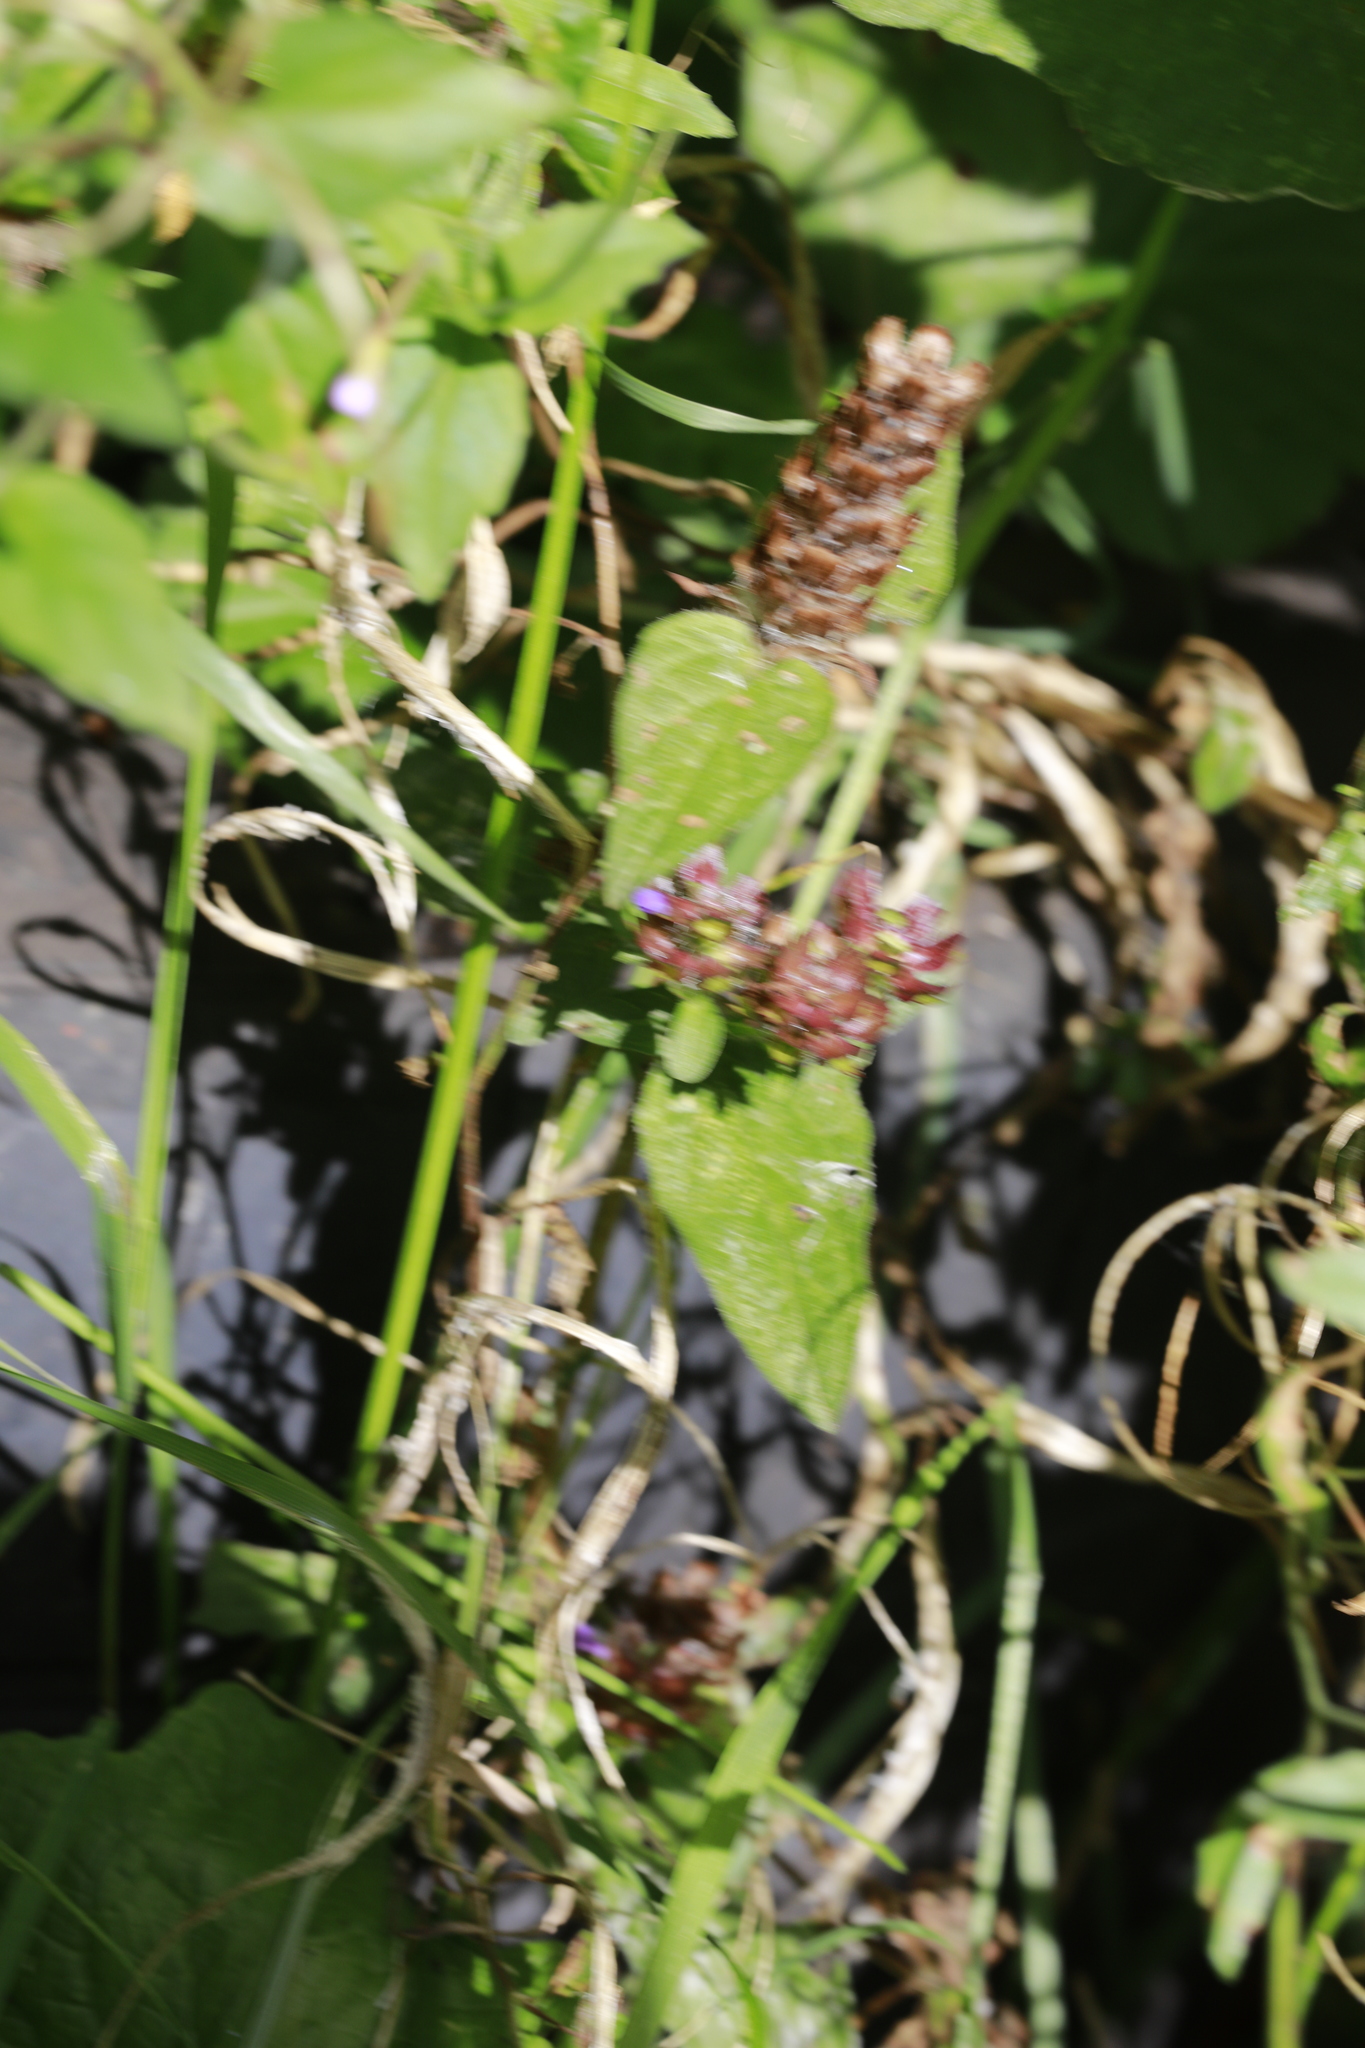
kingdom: Plantae
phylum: Tracheophyta
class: Magnoliopsida
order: Lamiales
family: Lamiaceae
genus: Prunella
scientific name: Prunella vulgaris
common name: Heal-all
